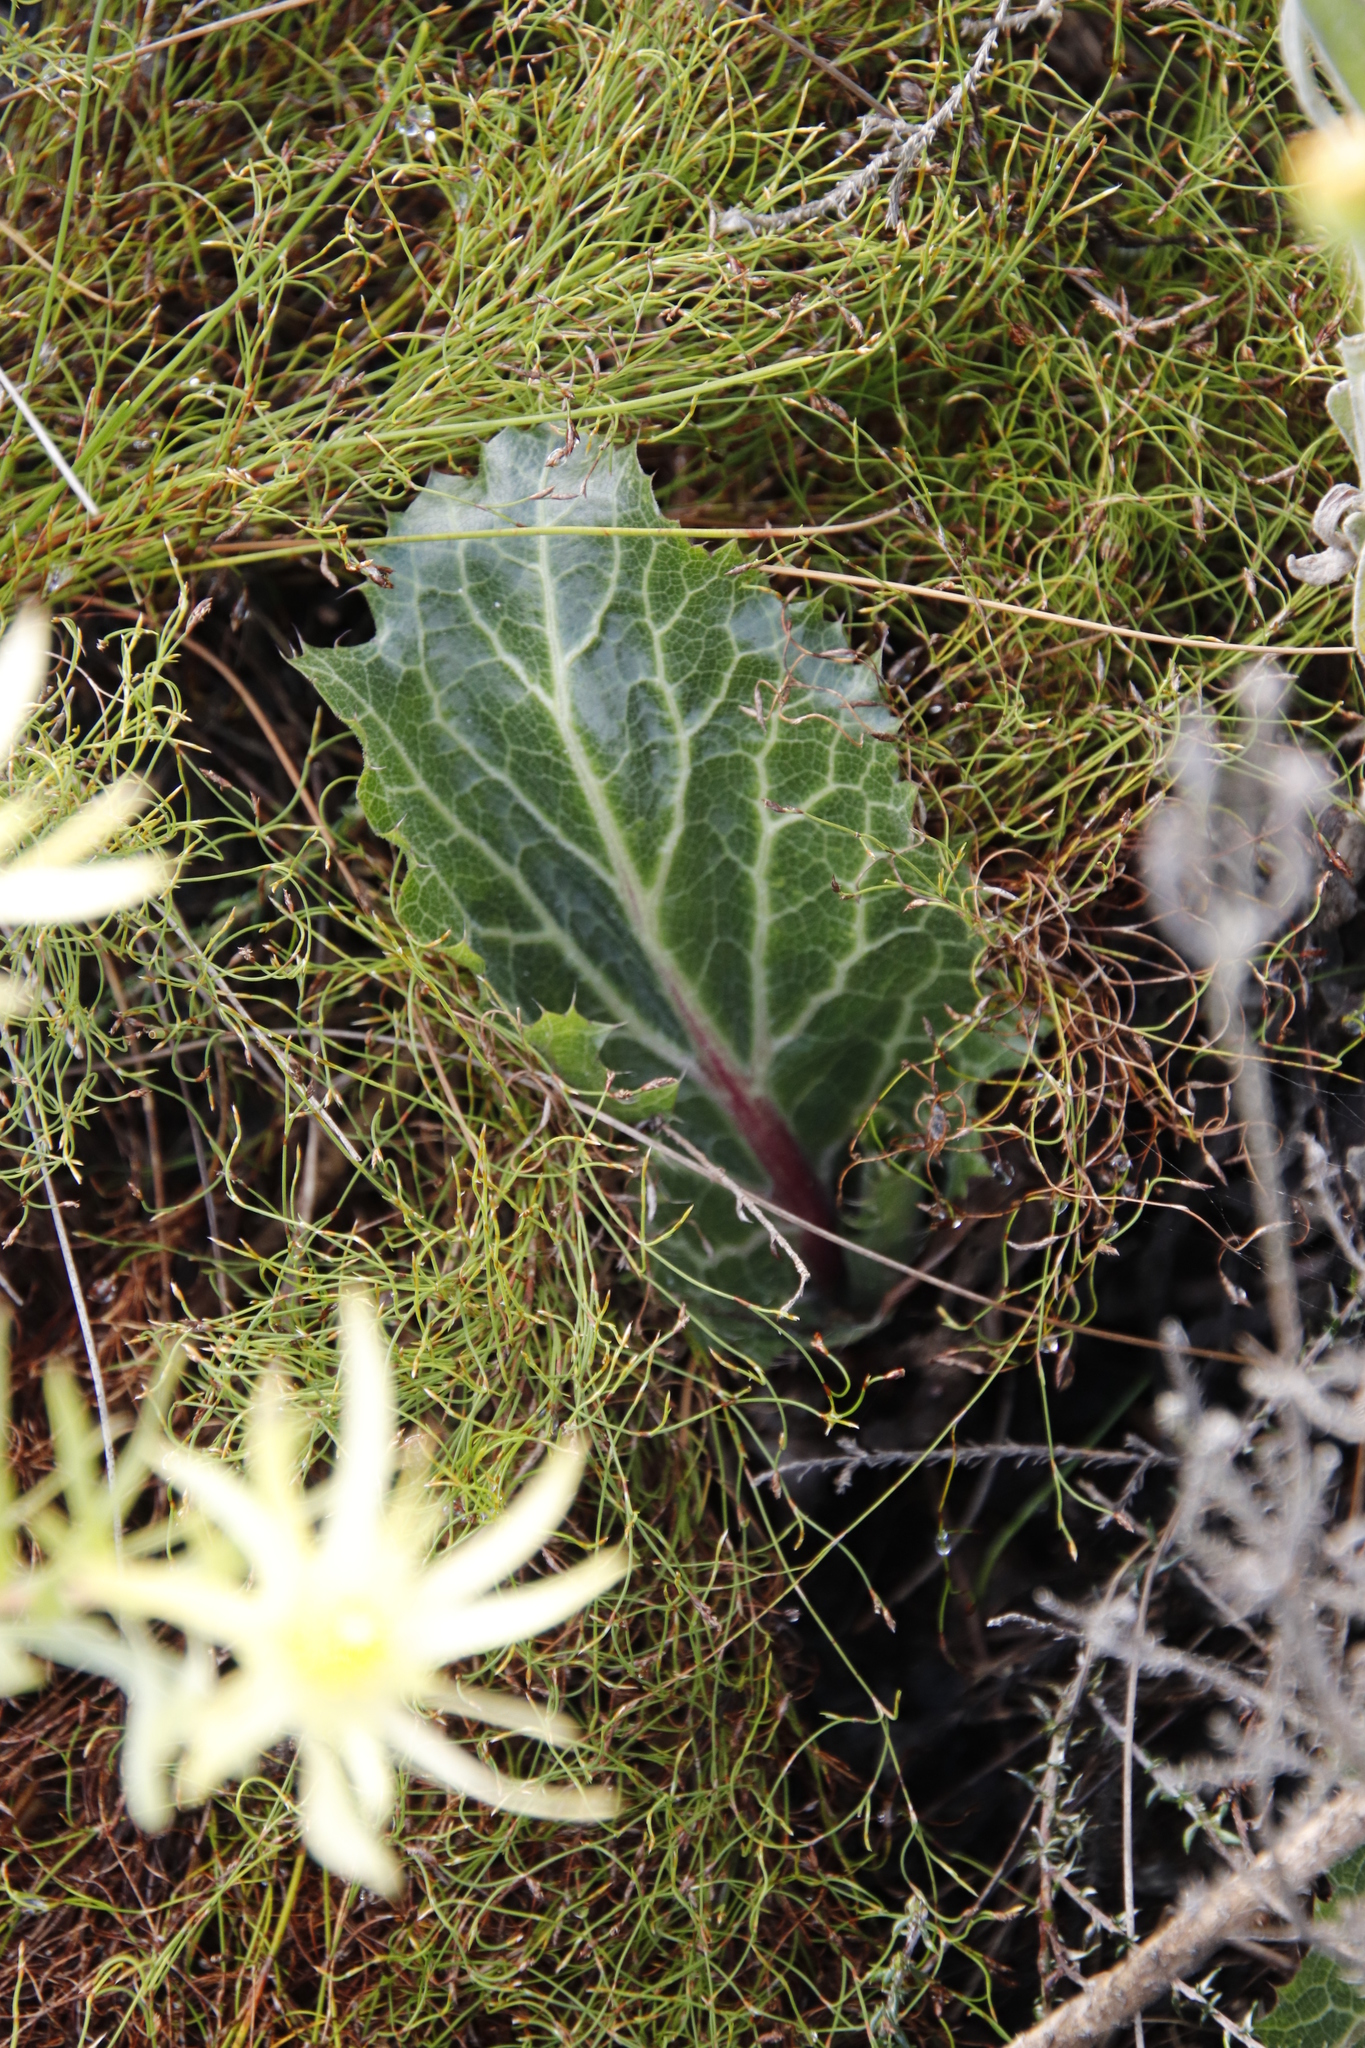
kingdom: Plantae
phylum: Tracheophyta
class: Magnoliopsida
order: Apiales
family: Apiaceae
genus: Lichtensteinia
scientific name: Lichtensteinia lacera
